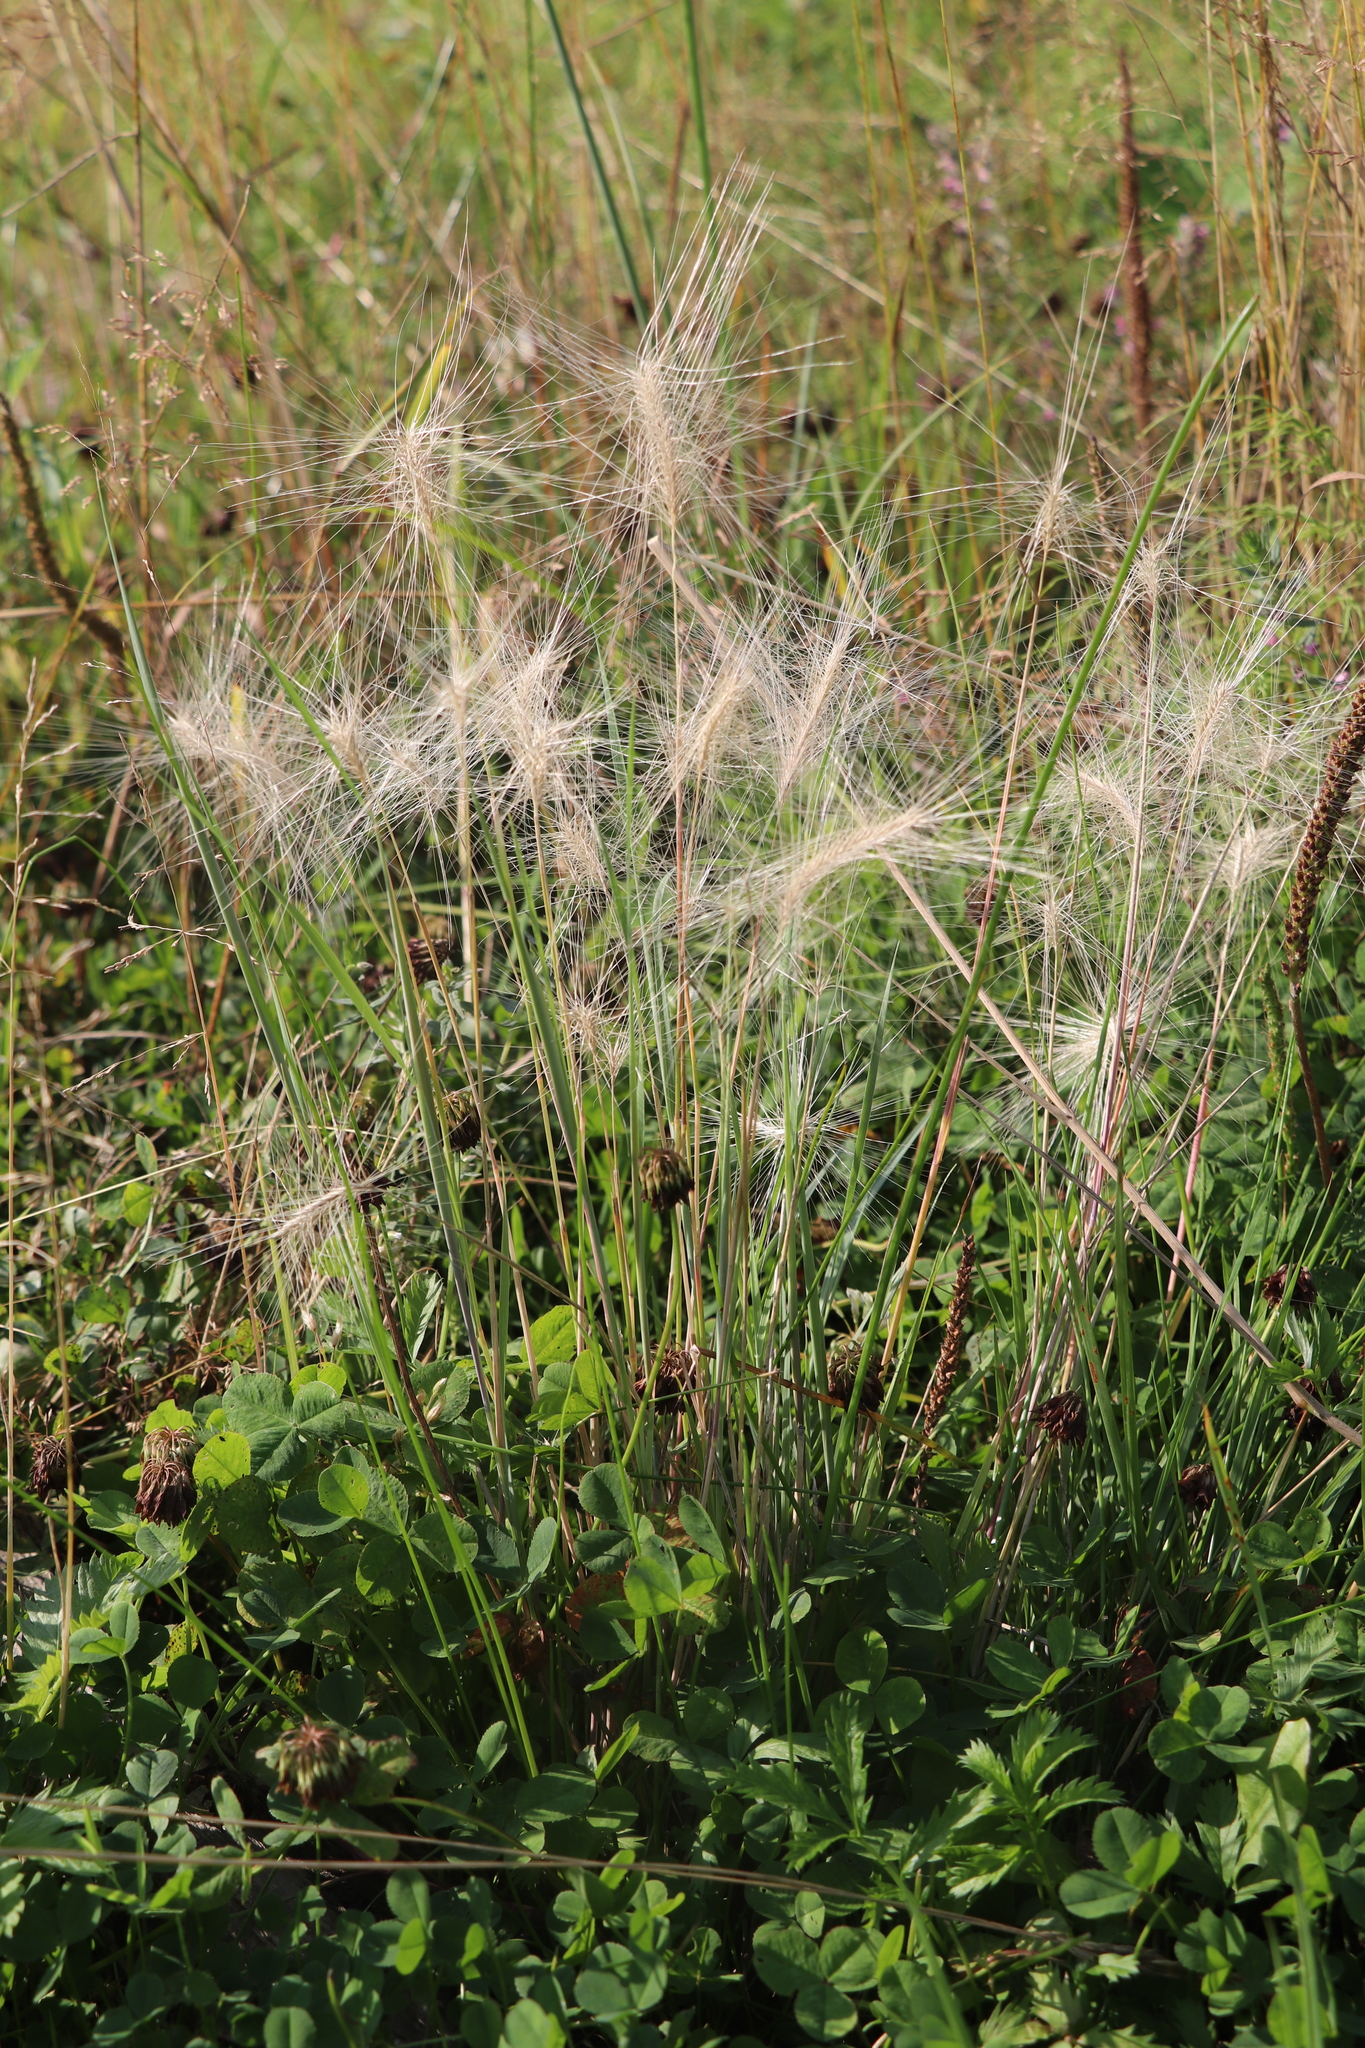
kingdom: Plantae
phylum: Tracheophyta
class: Liliopsida
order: Poales
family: Poaceae
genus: Hordeum
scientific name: Hordeum jubatum
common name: Foxtail barley
